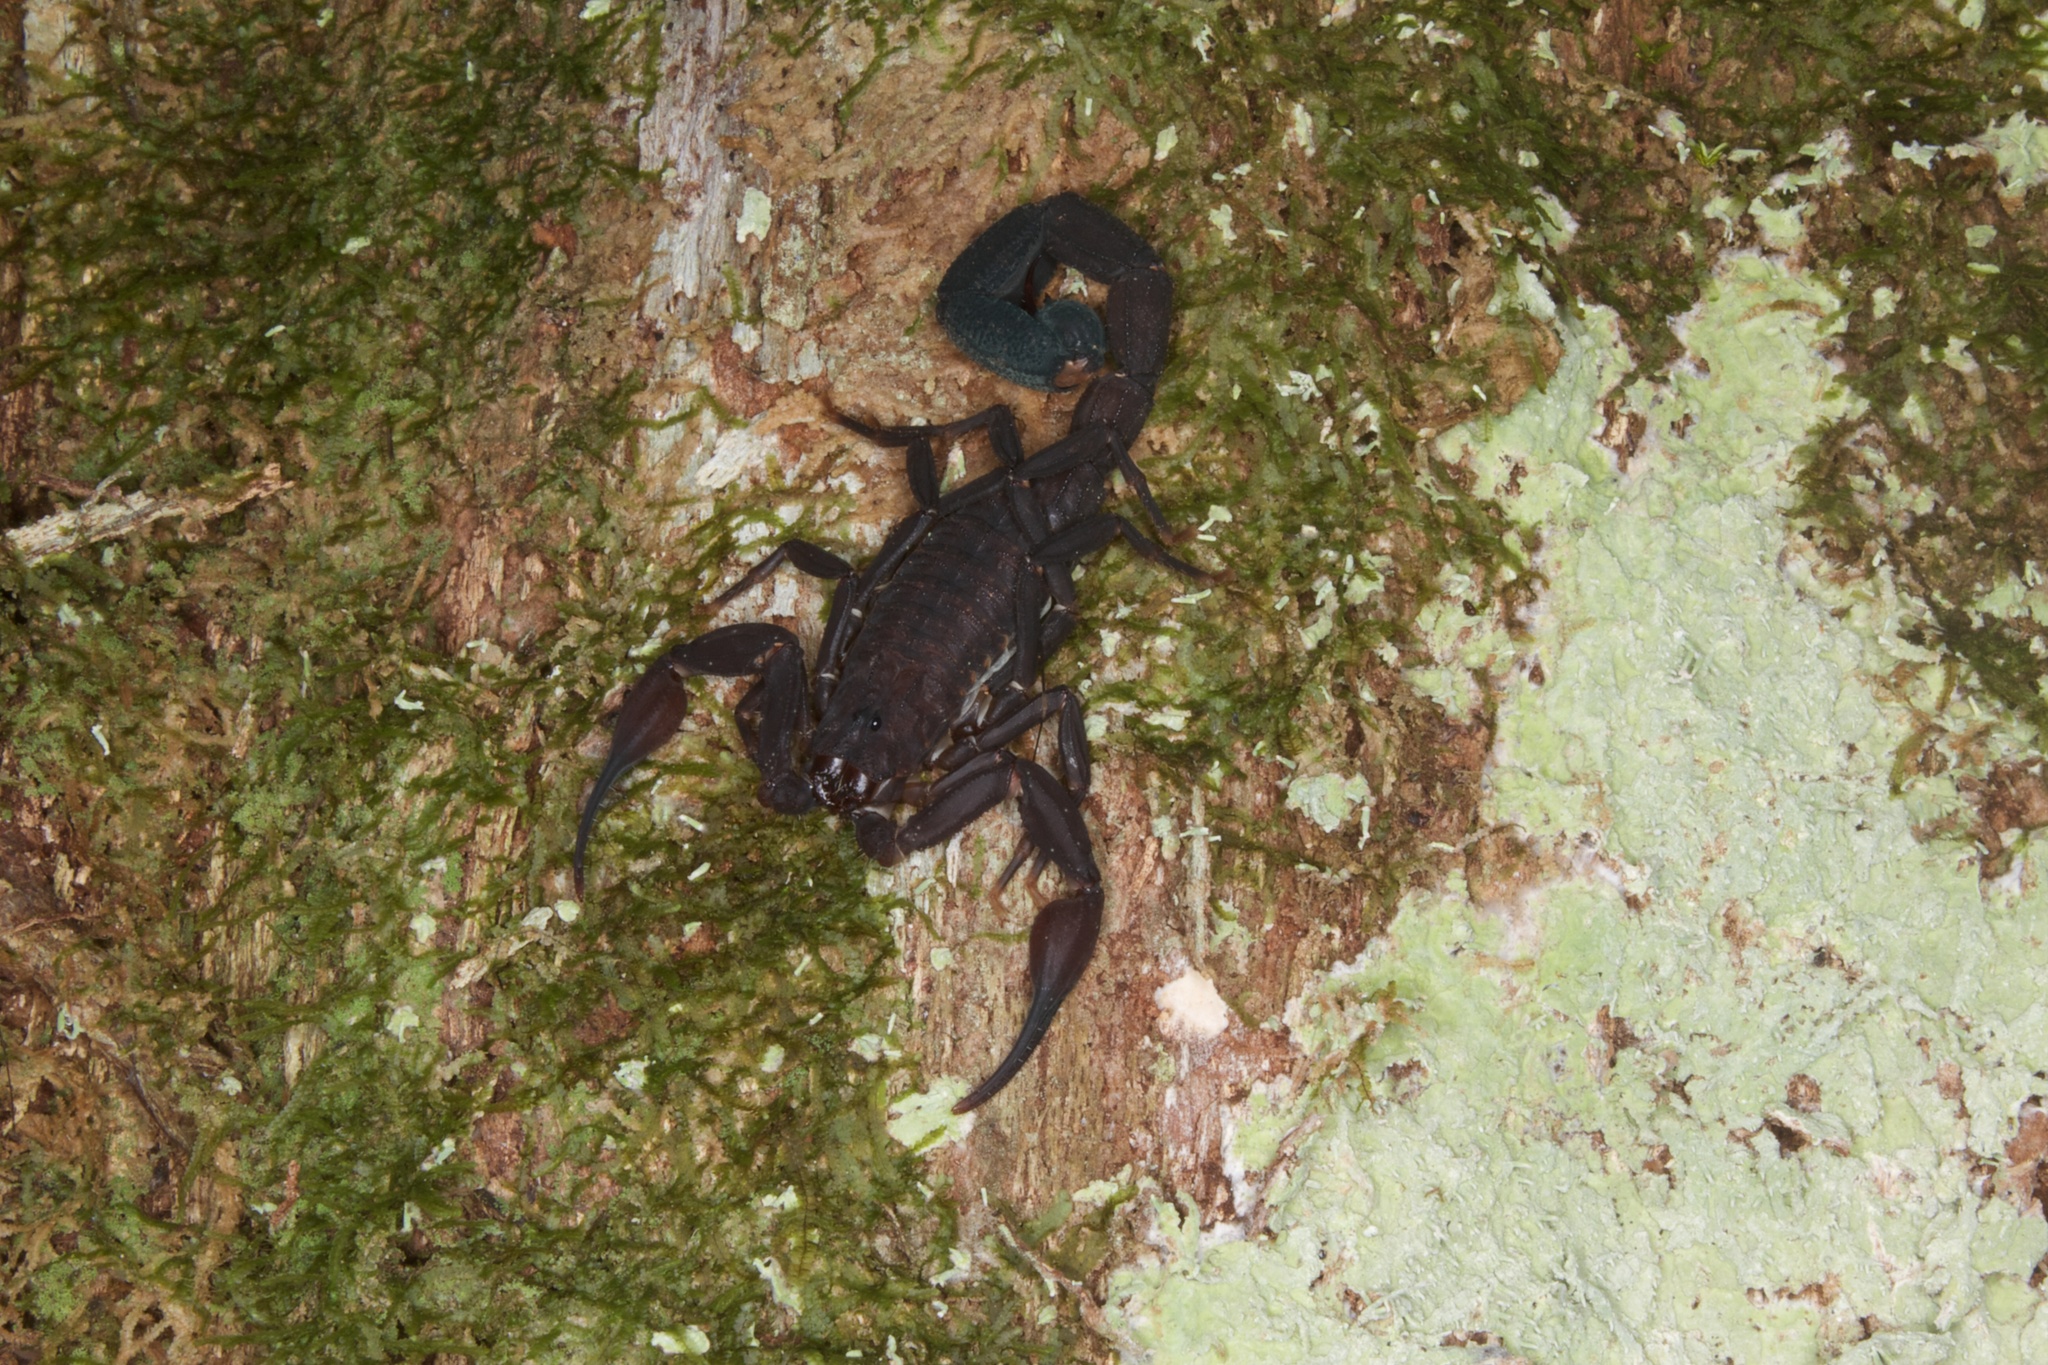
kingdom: Animalia
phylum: Arthropoda
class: Arachnida
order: Scorpiones
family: Buthidae
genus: Tityus
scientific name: Tityus pachyurus
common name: Scorpions
